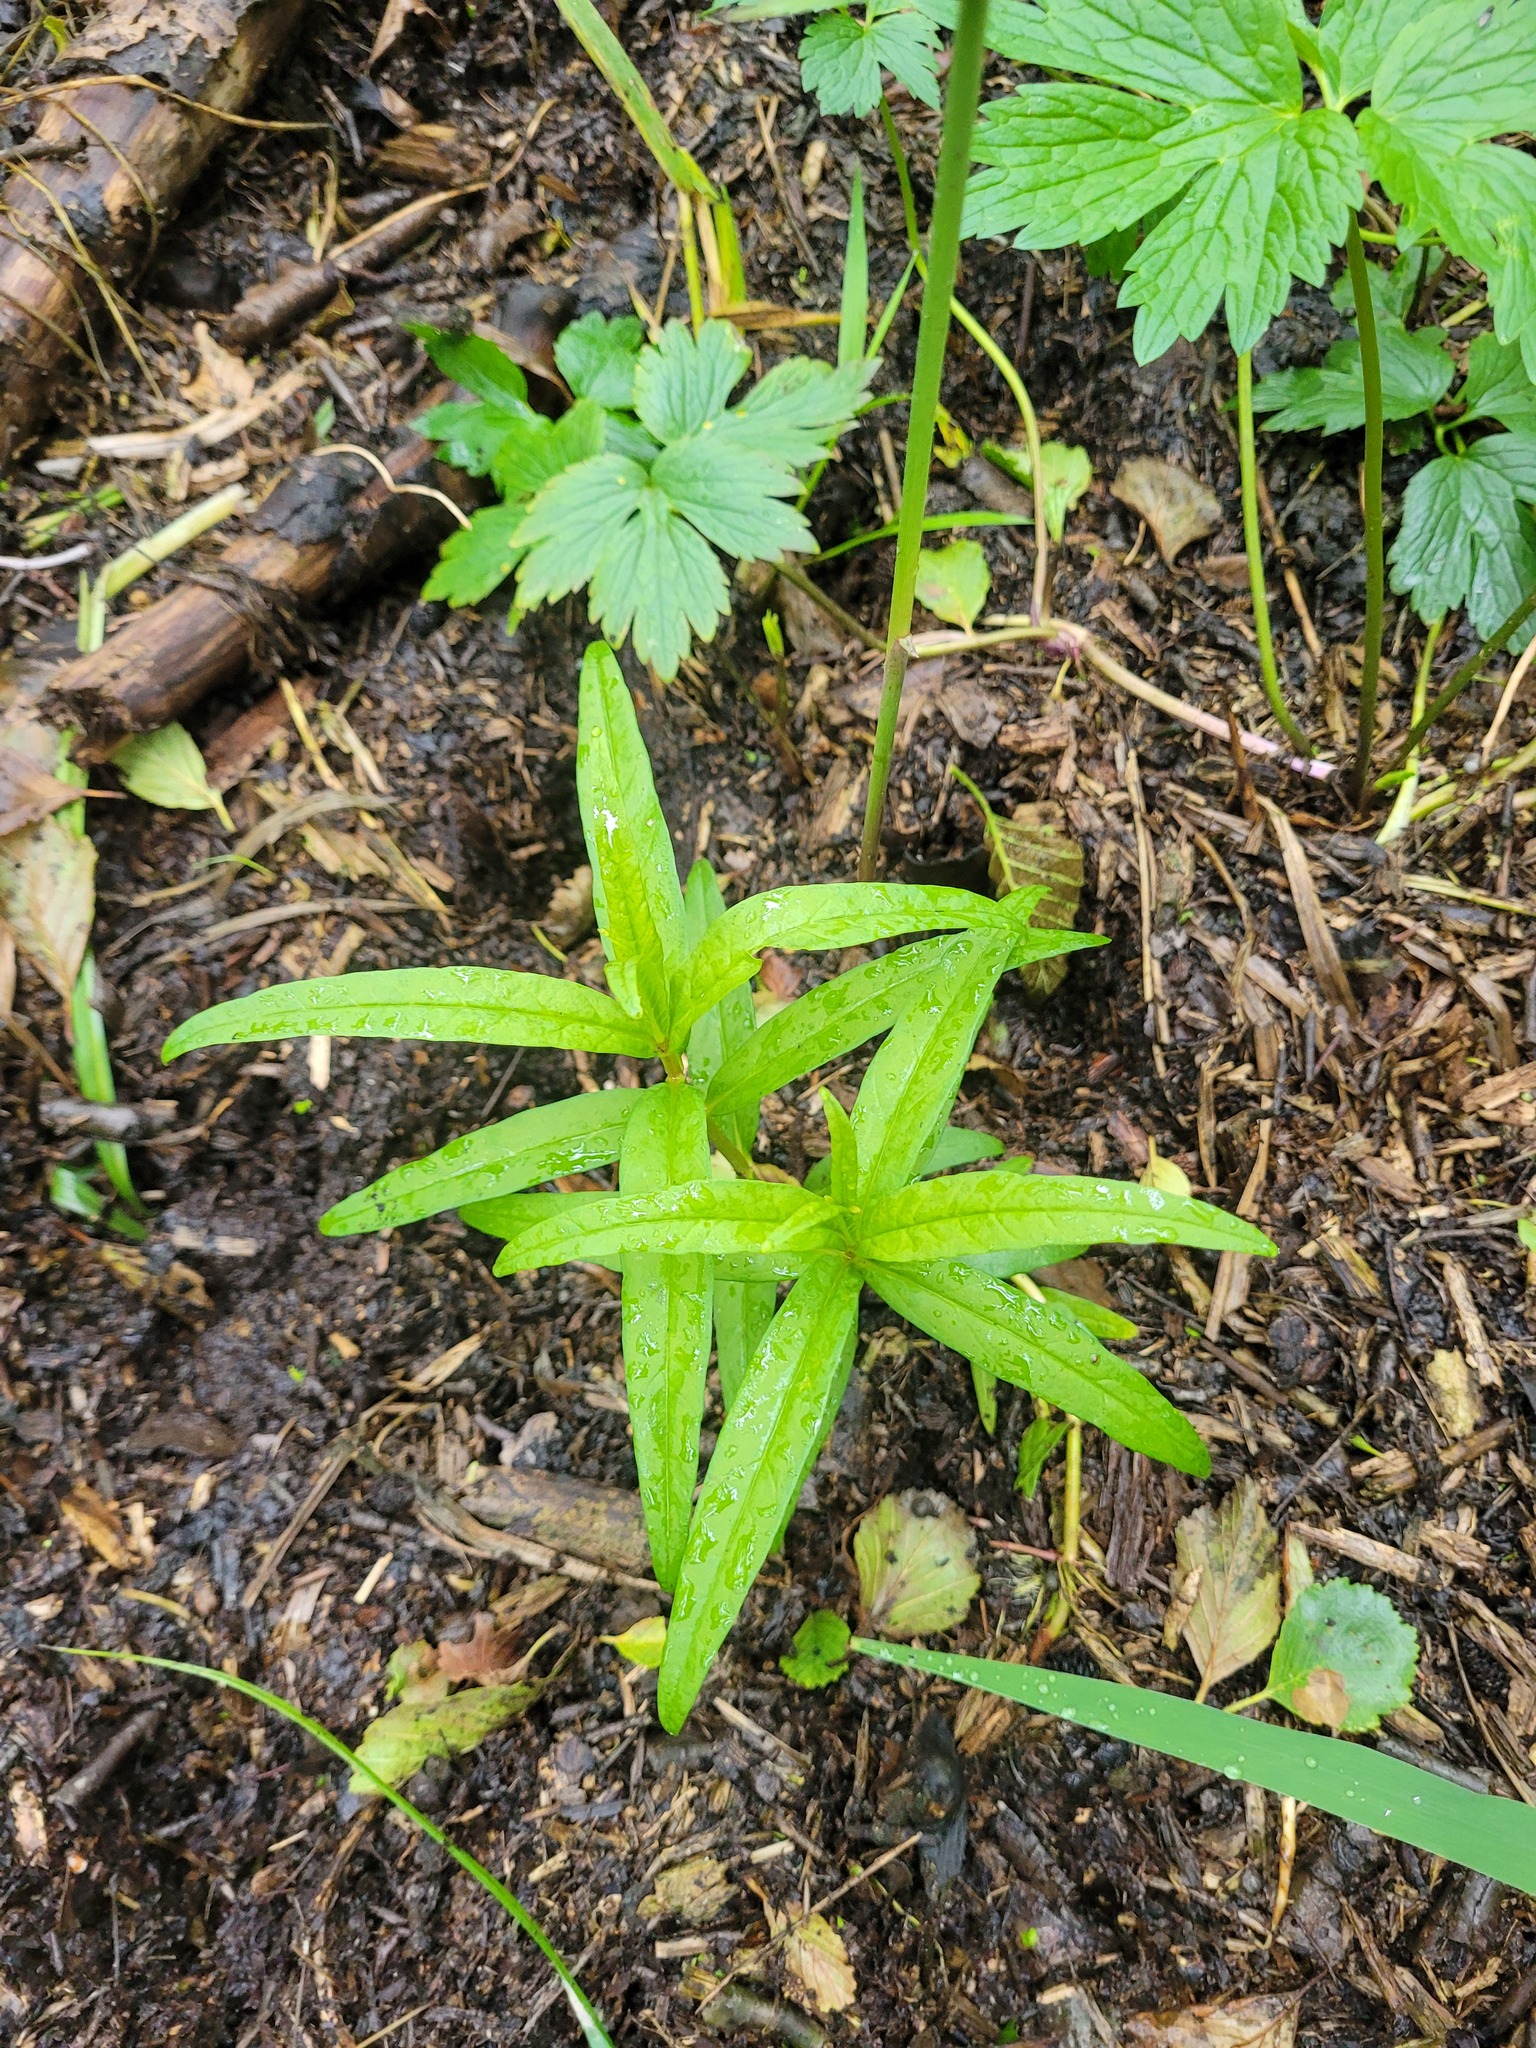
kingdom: Plantae
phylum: Tracheophyta
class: Magnoliopsida
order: Ericales
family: Primulaceae
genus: Lysimachia
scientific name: Lysimachia thyrsiflora
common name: Tufted loosestrife
